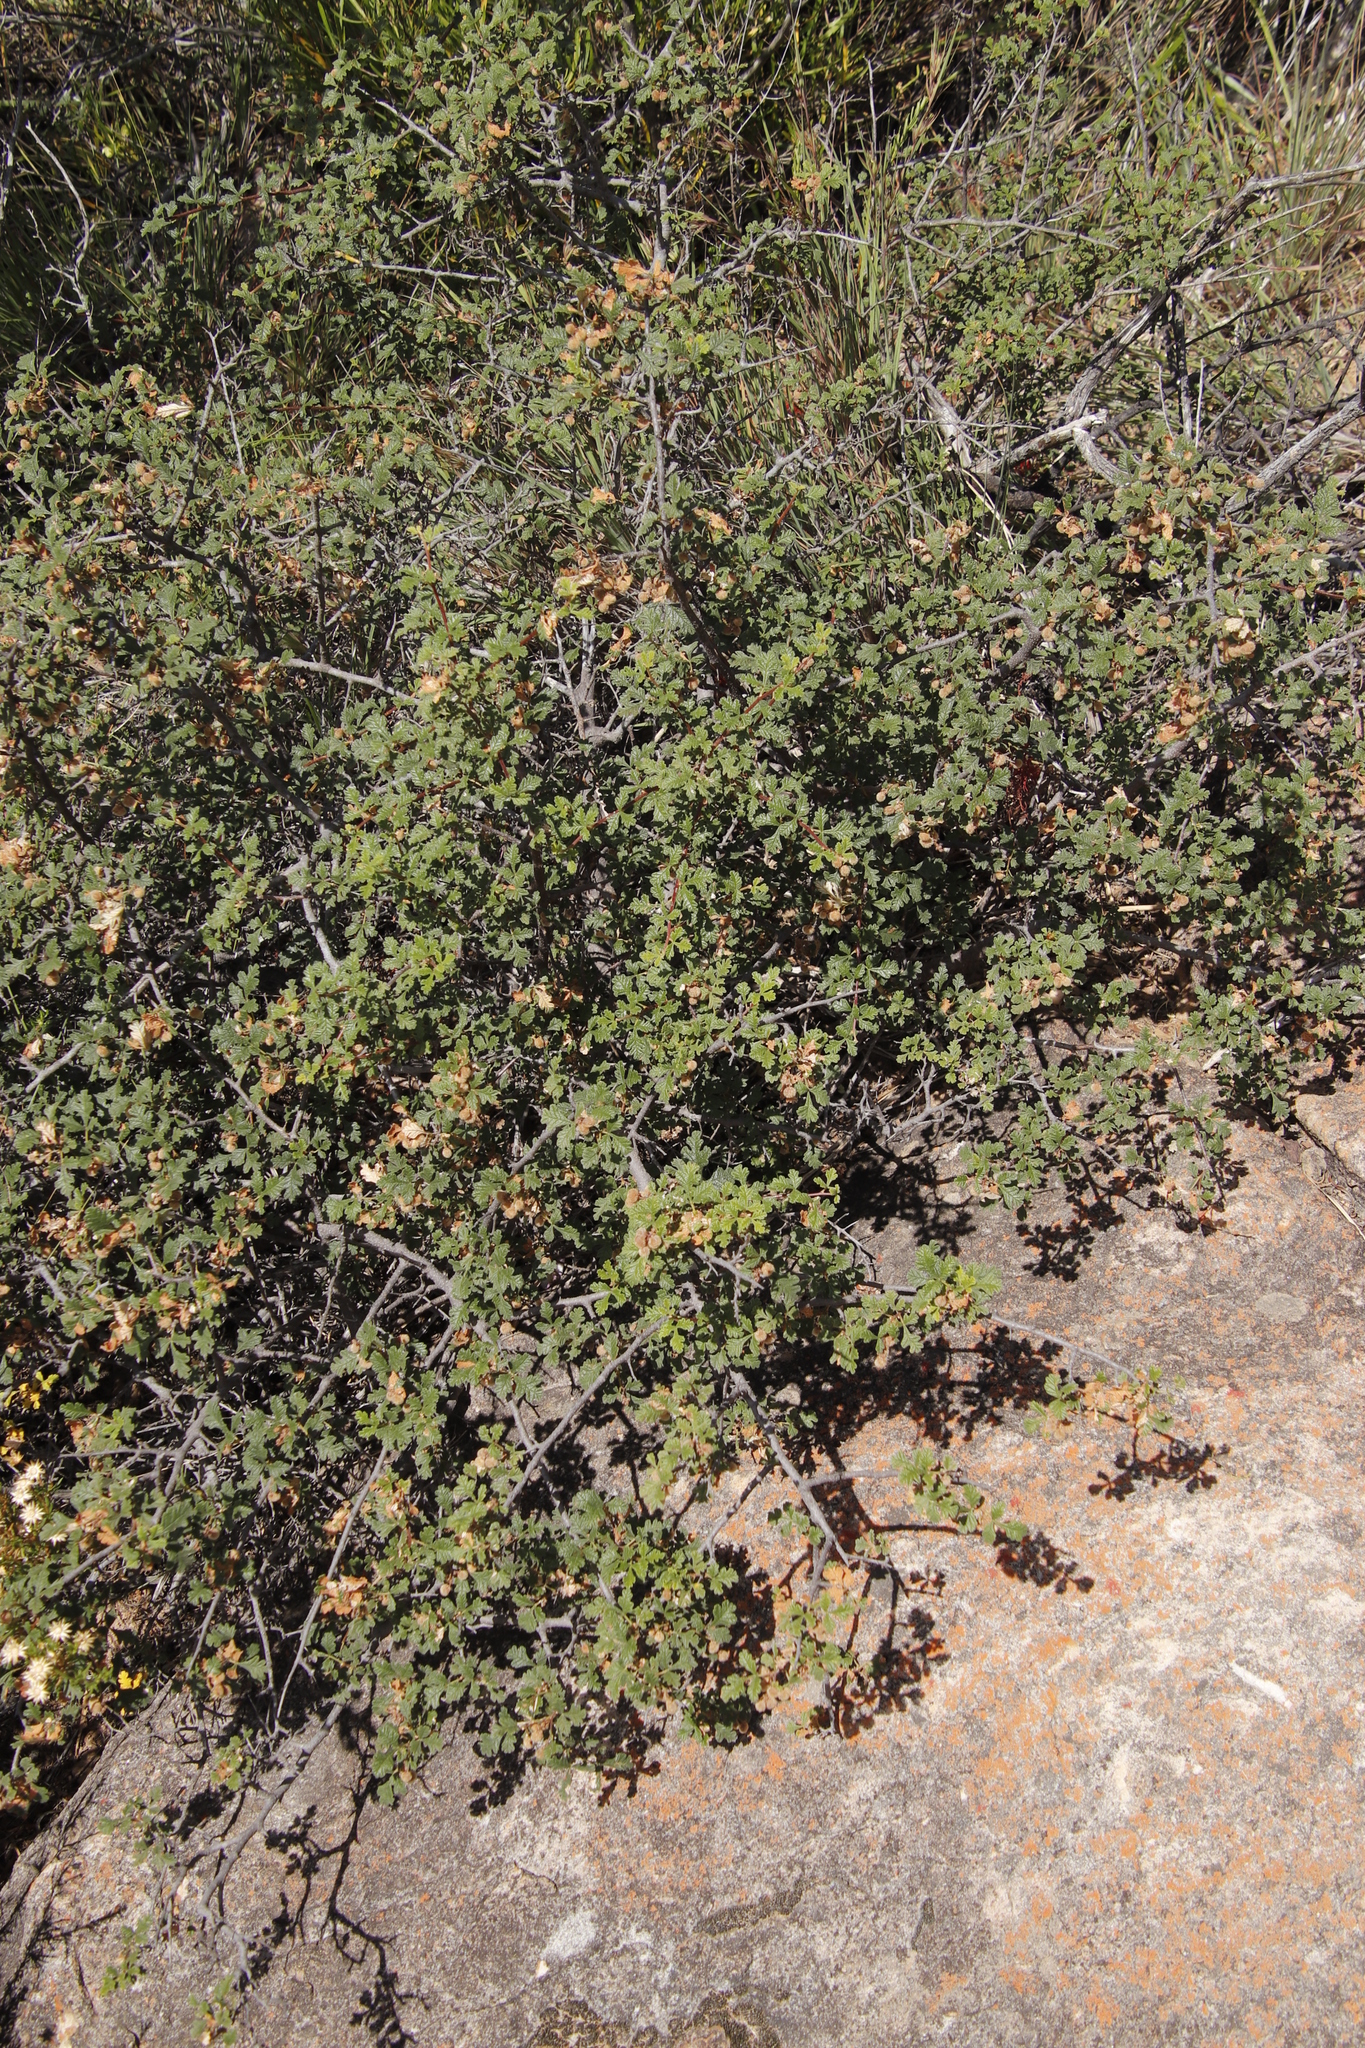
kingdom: Plantae
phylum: Tracheophyta
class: Magnoliopsida
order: Sapindales
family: Anacardiaceae
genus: Searsia
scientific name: Searsia incisa
